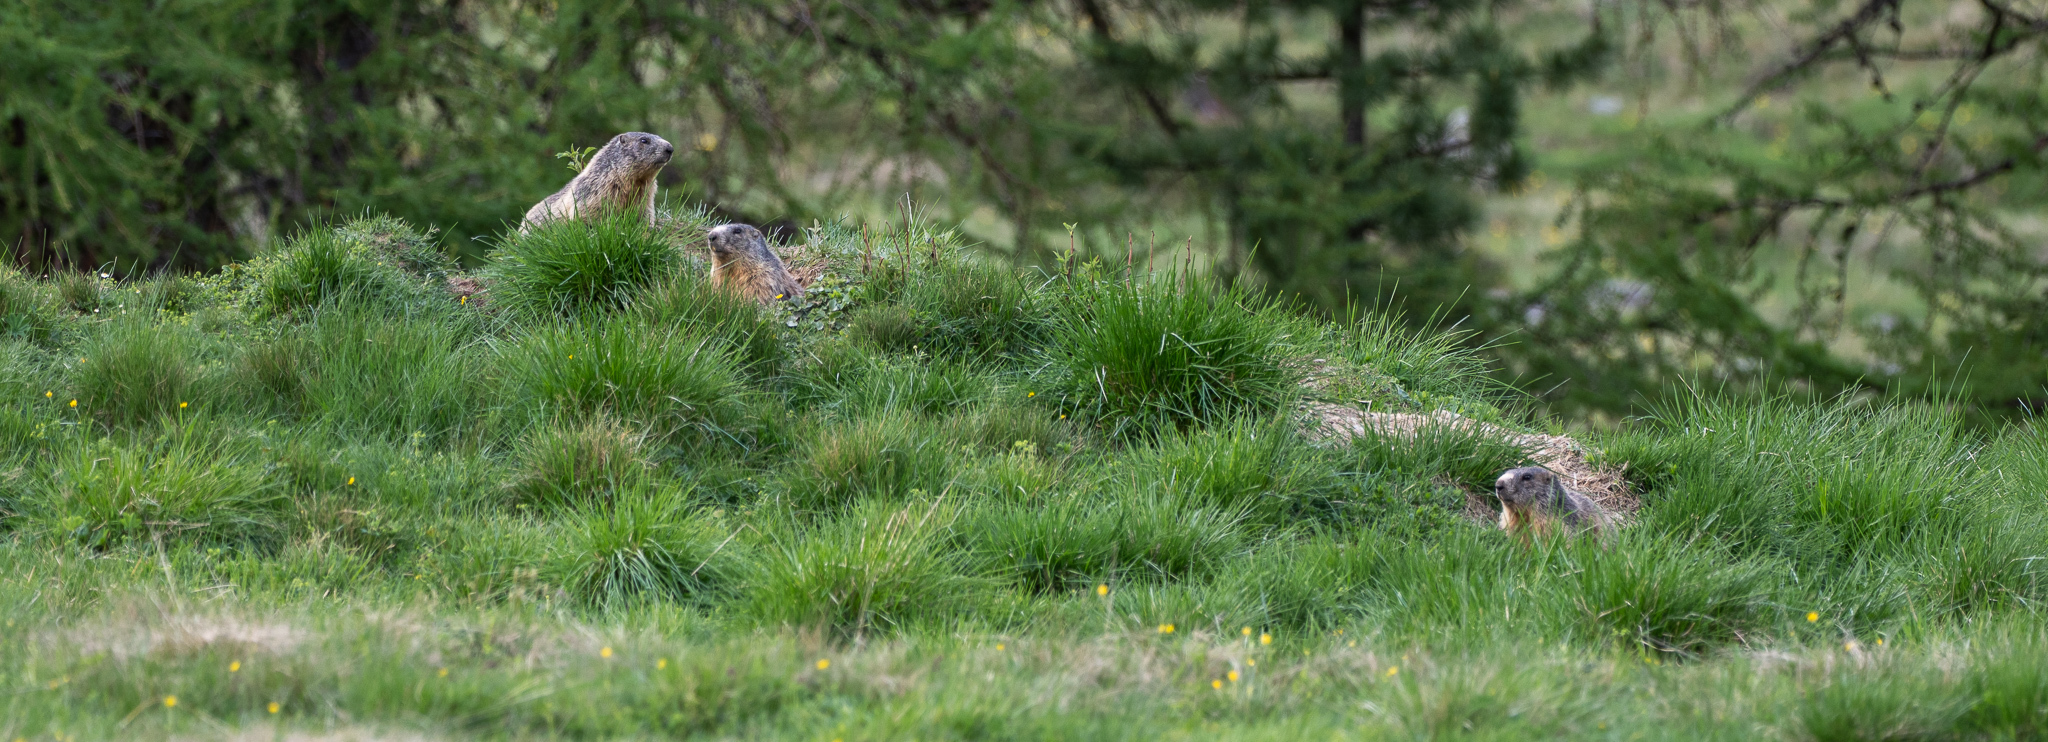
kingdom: Animalia
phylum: Chordata
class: Mammalia
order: Rodentia
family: Sciuridae
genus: Marmota
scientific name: Marmota marmota
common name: Alpine marmot
